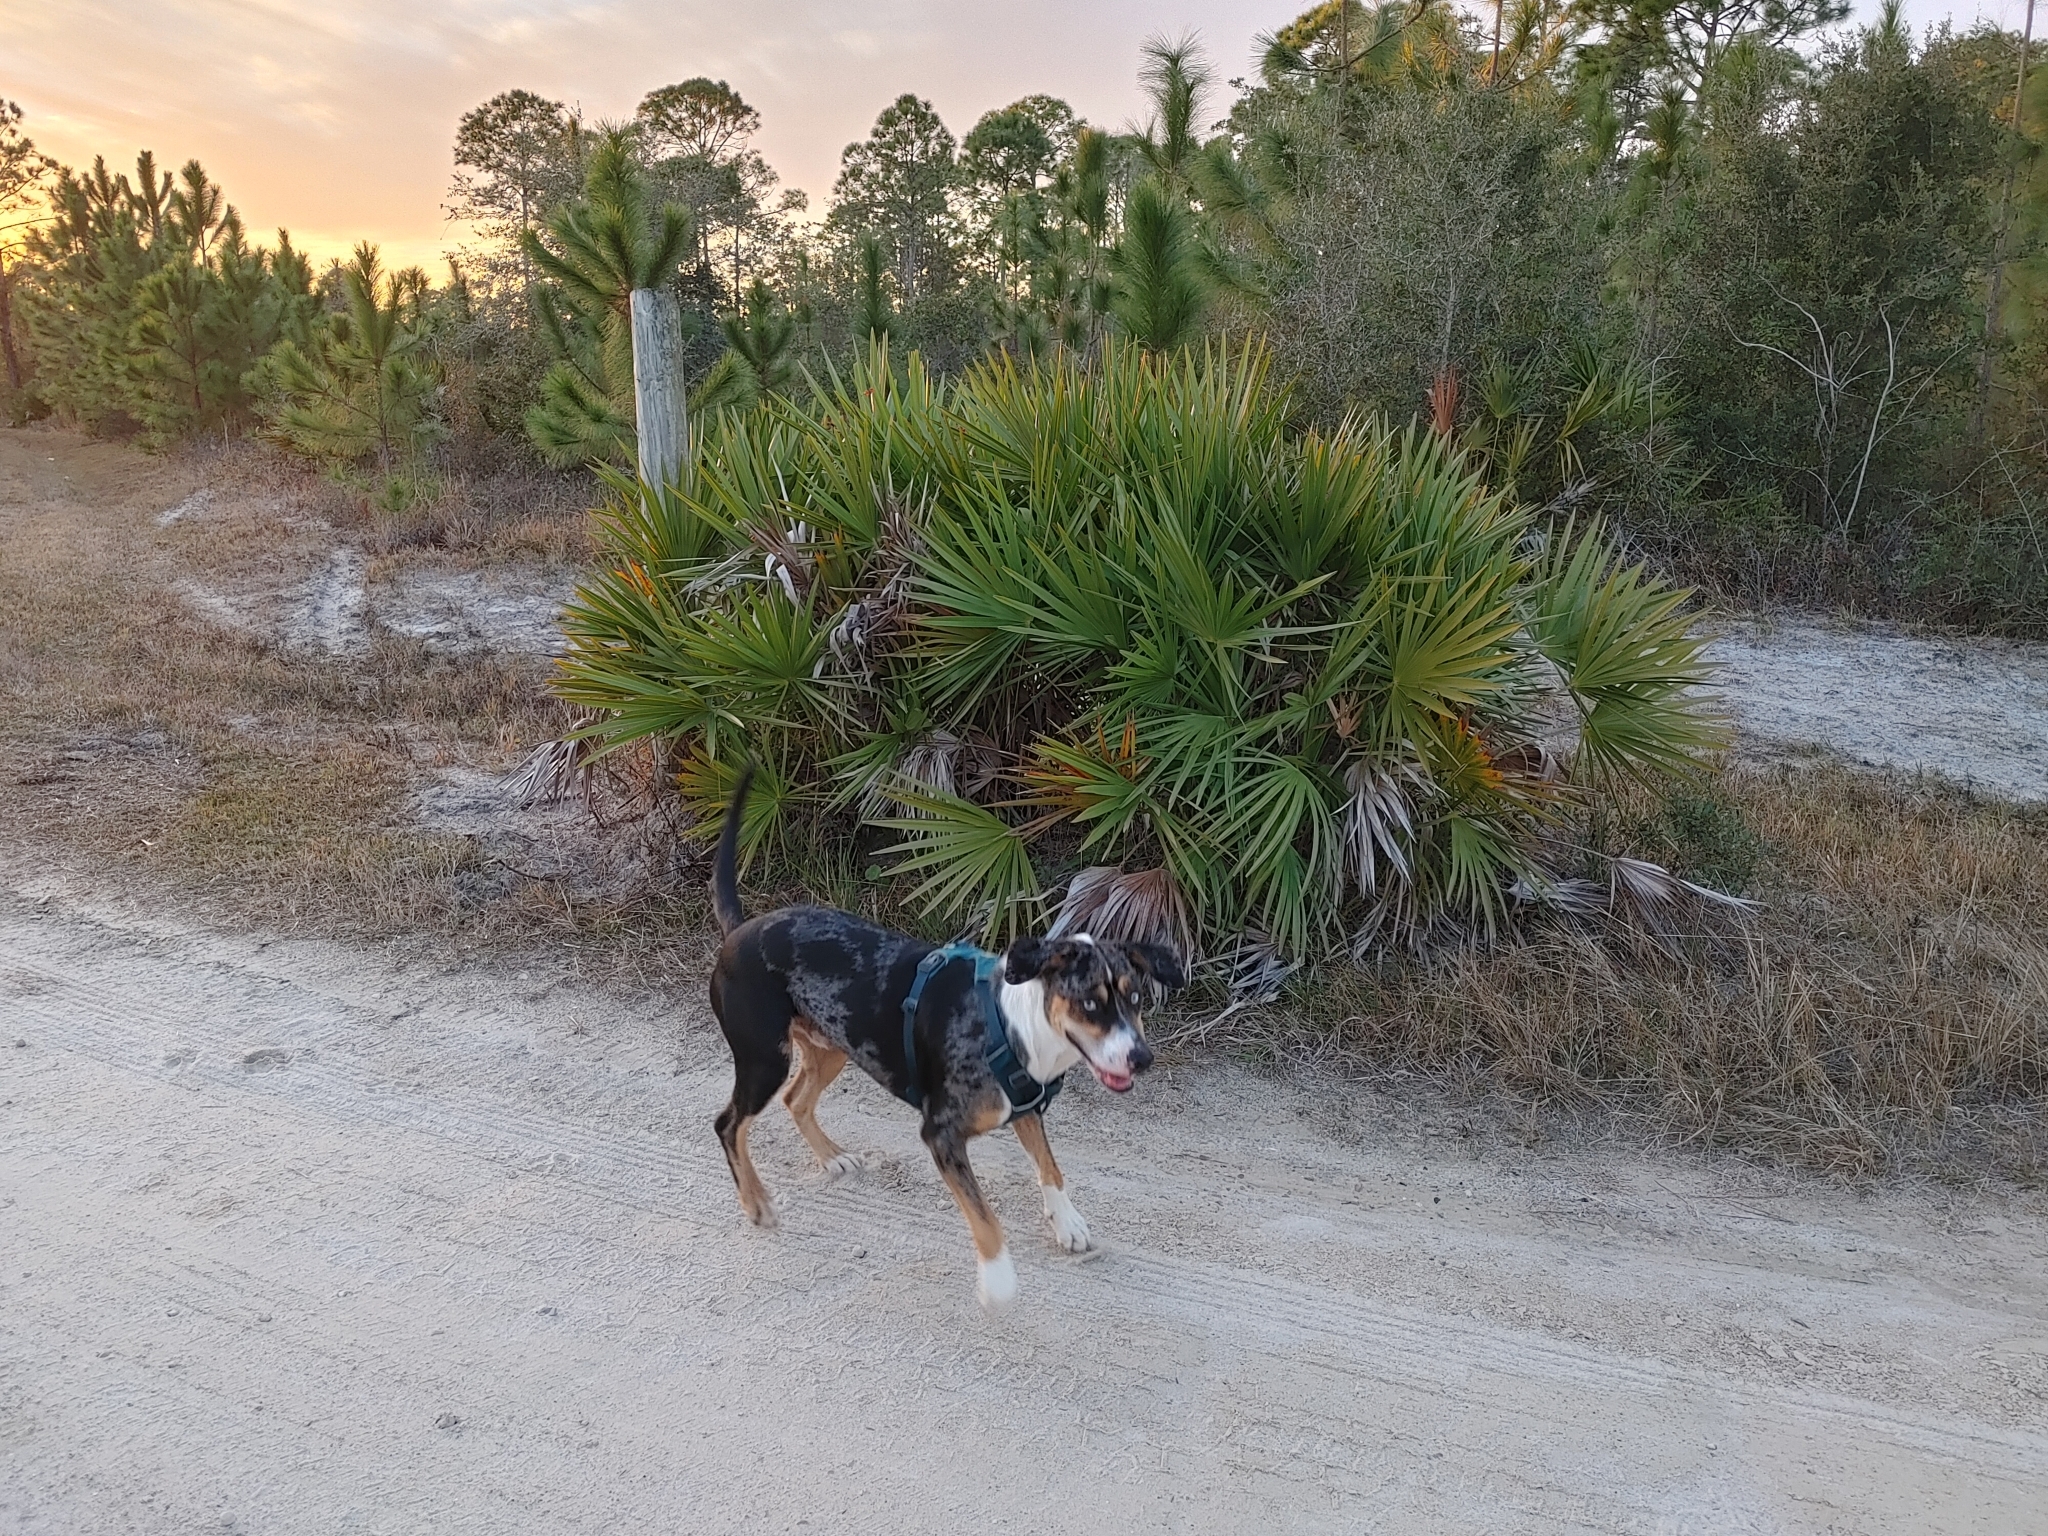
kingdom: Plantae
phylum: Tracheophyta
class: Liliopsida
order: Arecales
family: Arecaceae
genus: Serenoa
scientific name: Serenoa repens
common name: Saw-palmetto
